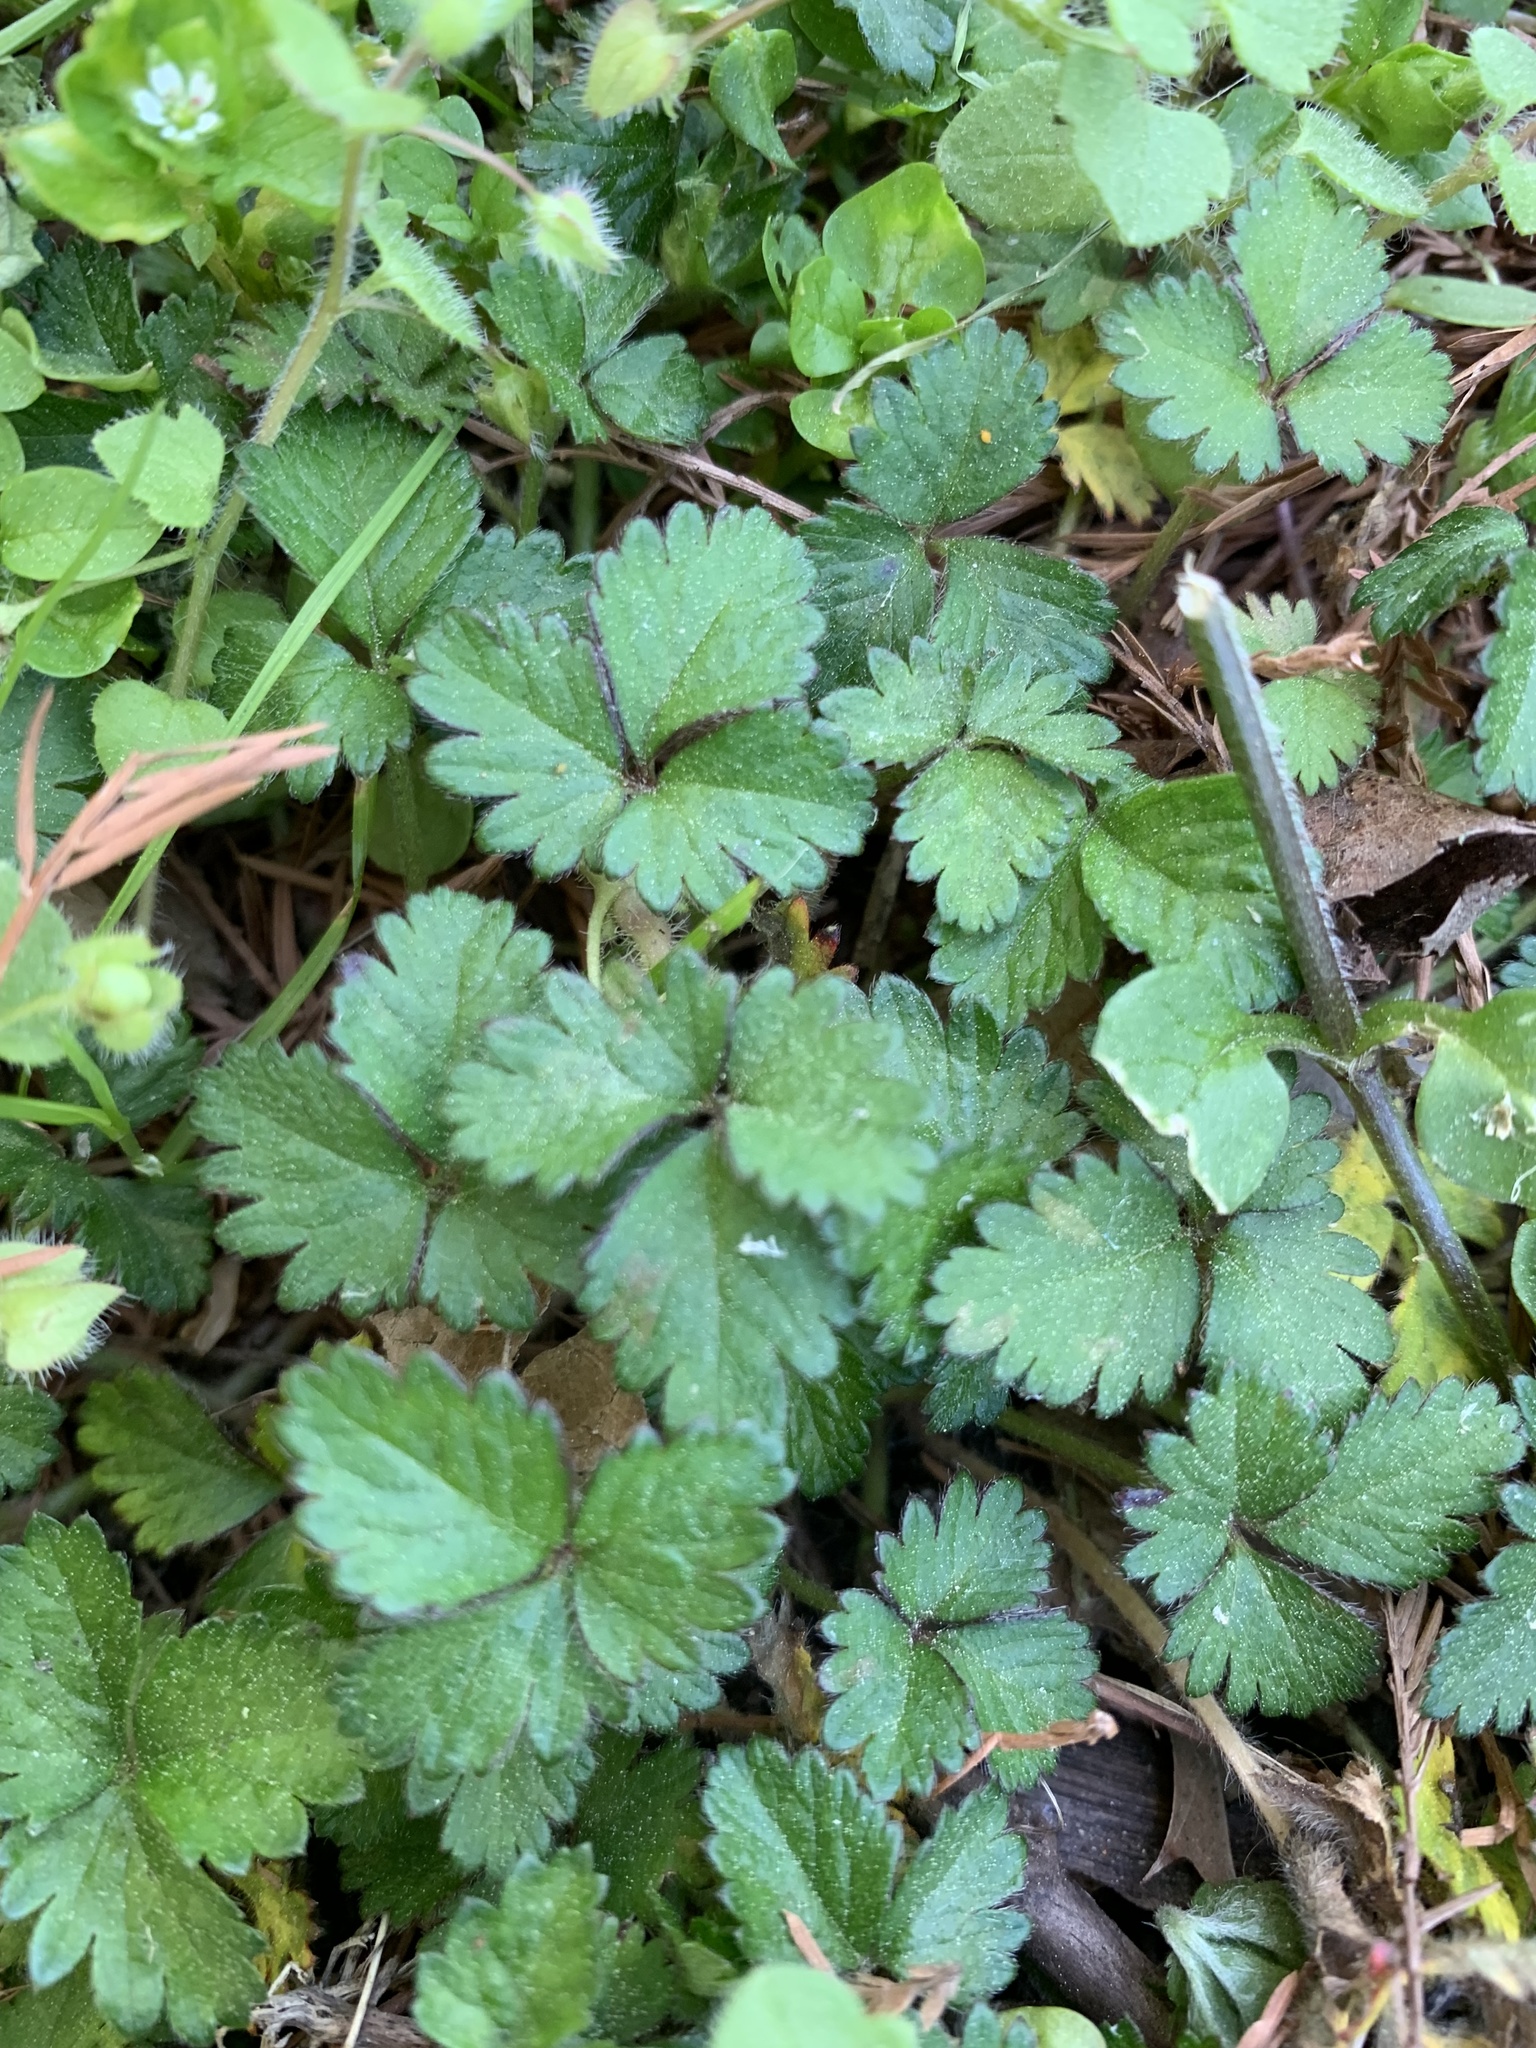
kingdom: Plantae
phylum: Tracheophyta
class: Magnoliopsida
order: Rosales
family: Rosaceae
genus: Potentilla
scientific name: Potentilla indica
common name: Yellow-flowered strawberry
